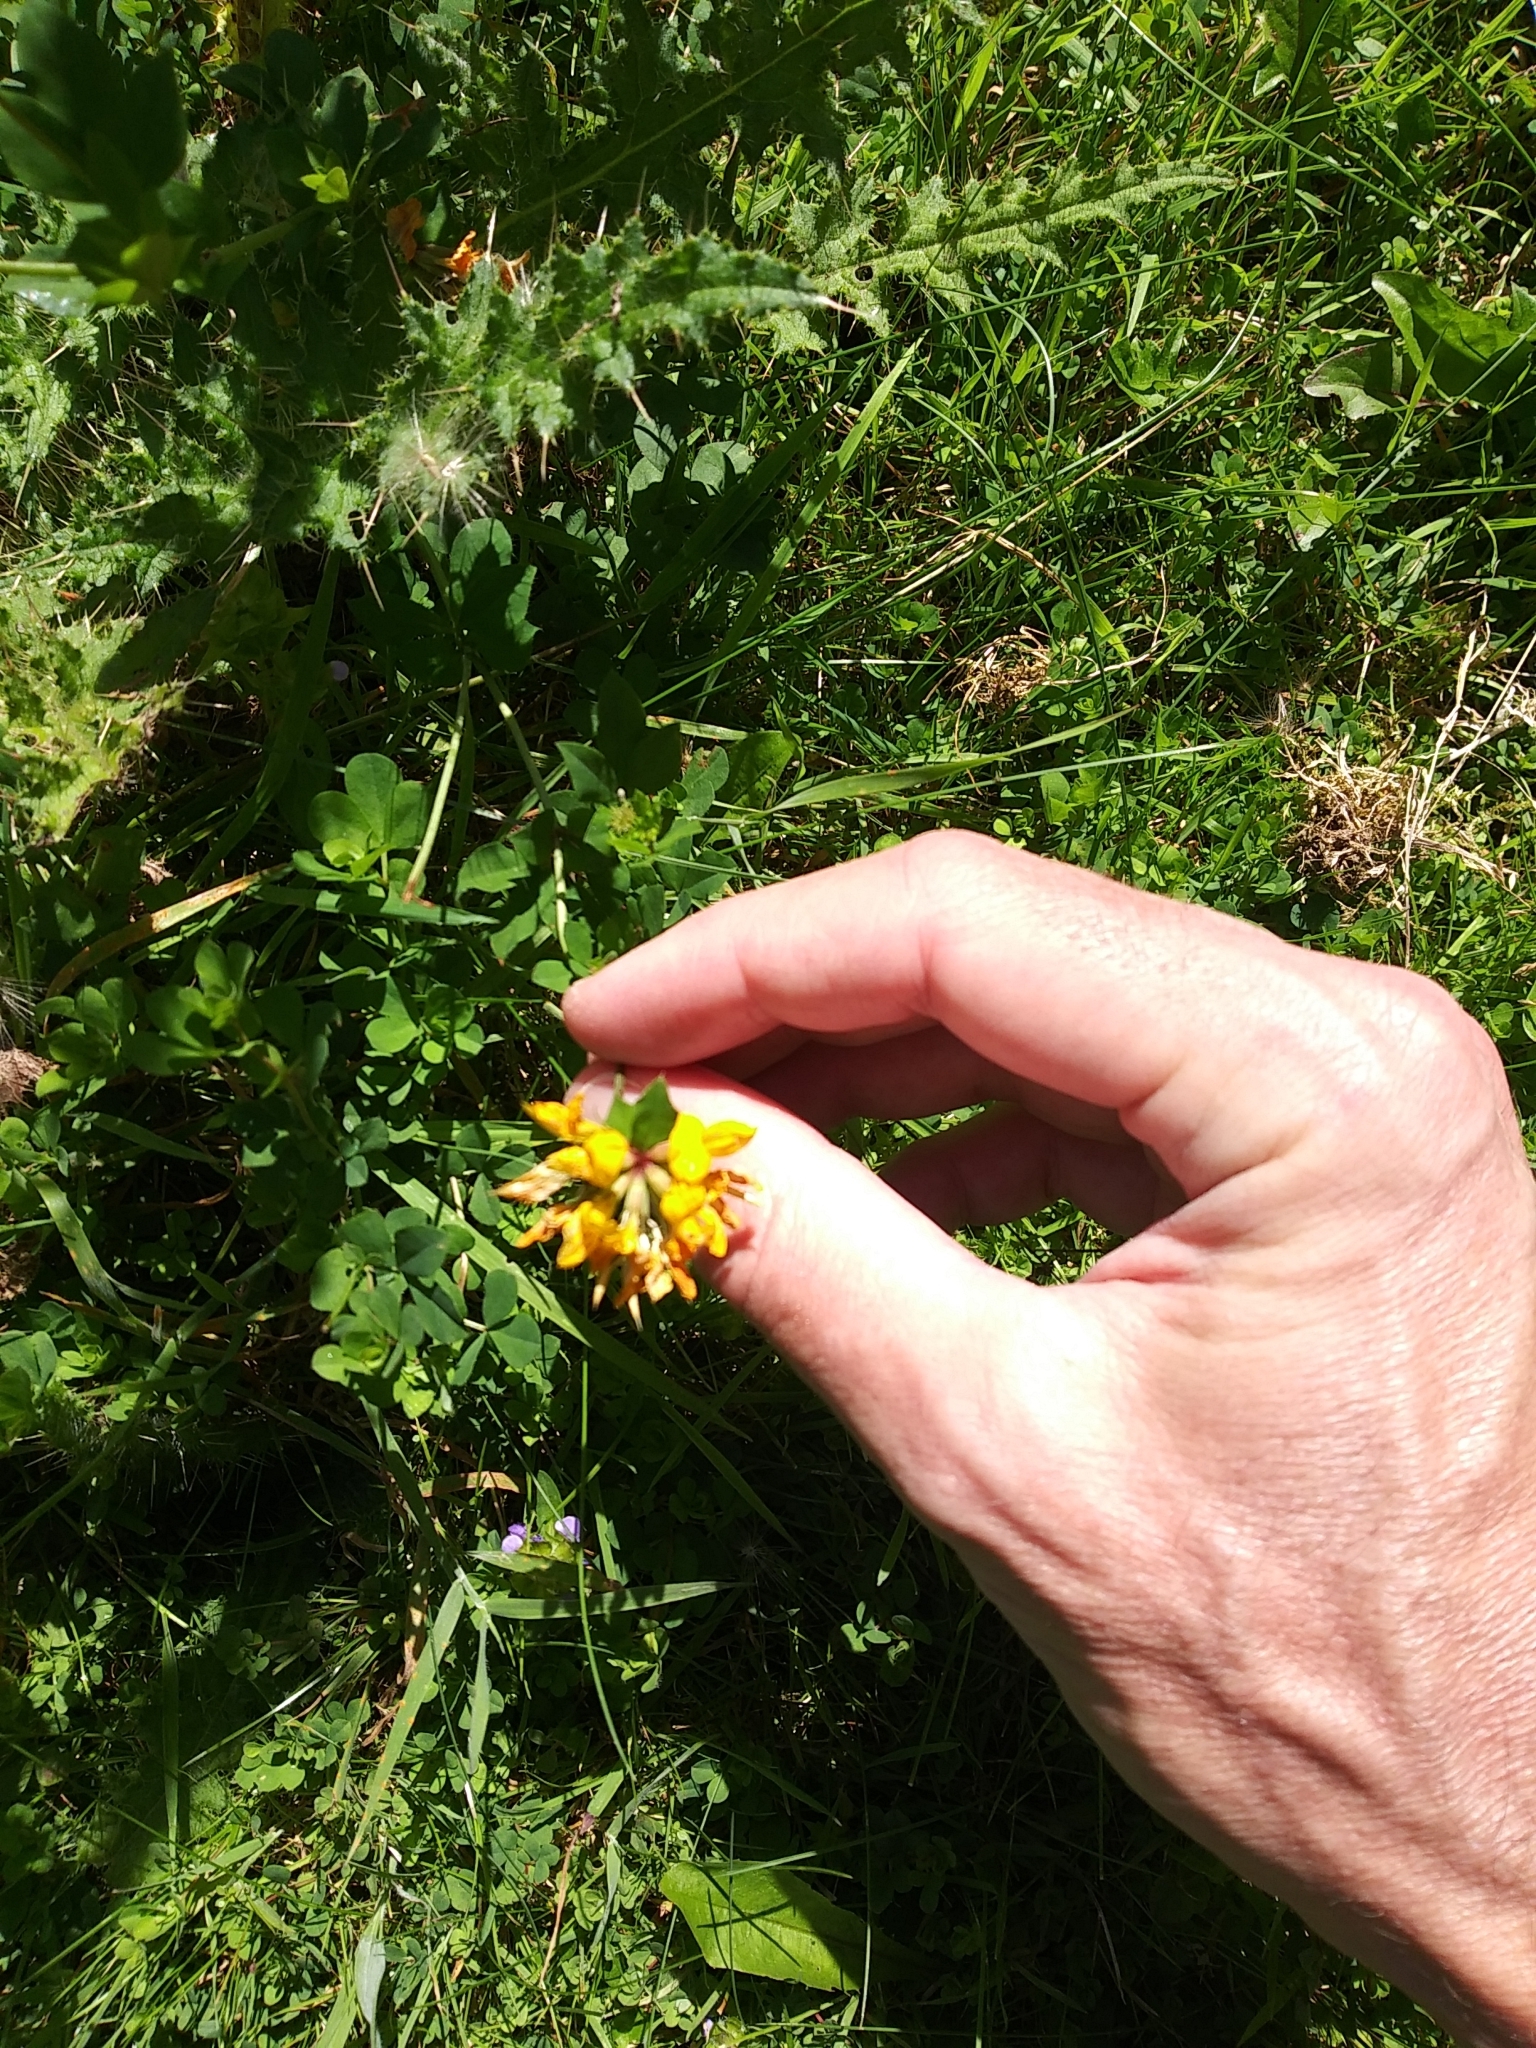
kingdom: Plantae
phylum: Tracheophyta
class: Magnoliopsida
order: Fabales
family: Fabaceae
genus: Lotus
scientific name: Lotus pedunculatus
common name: Greater birdsfoot-trefoil
